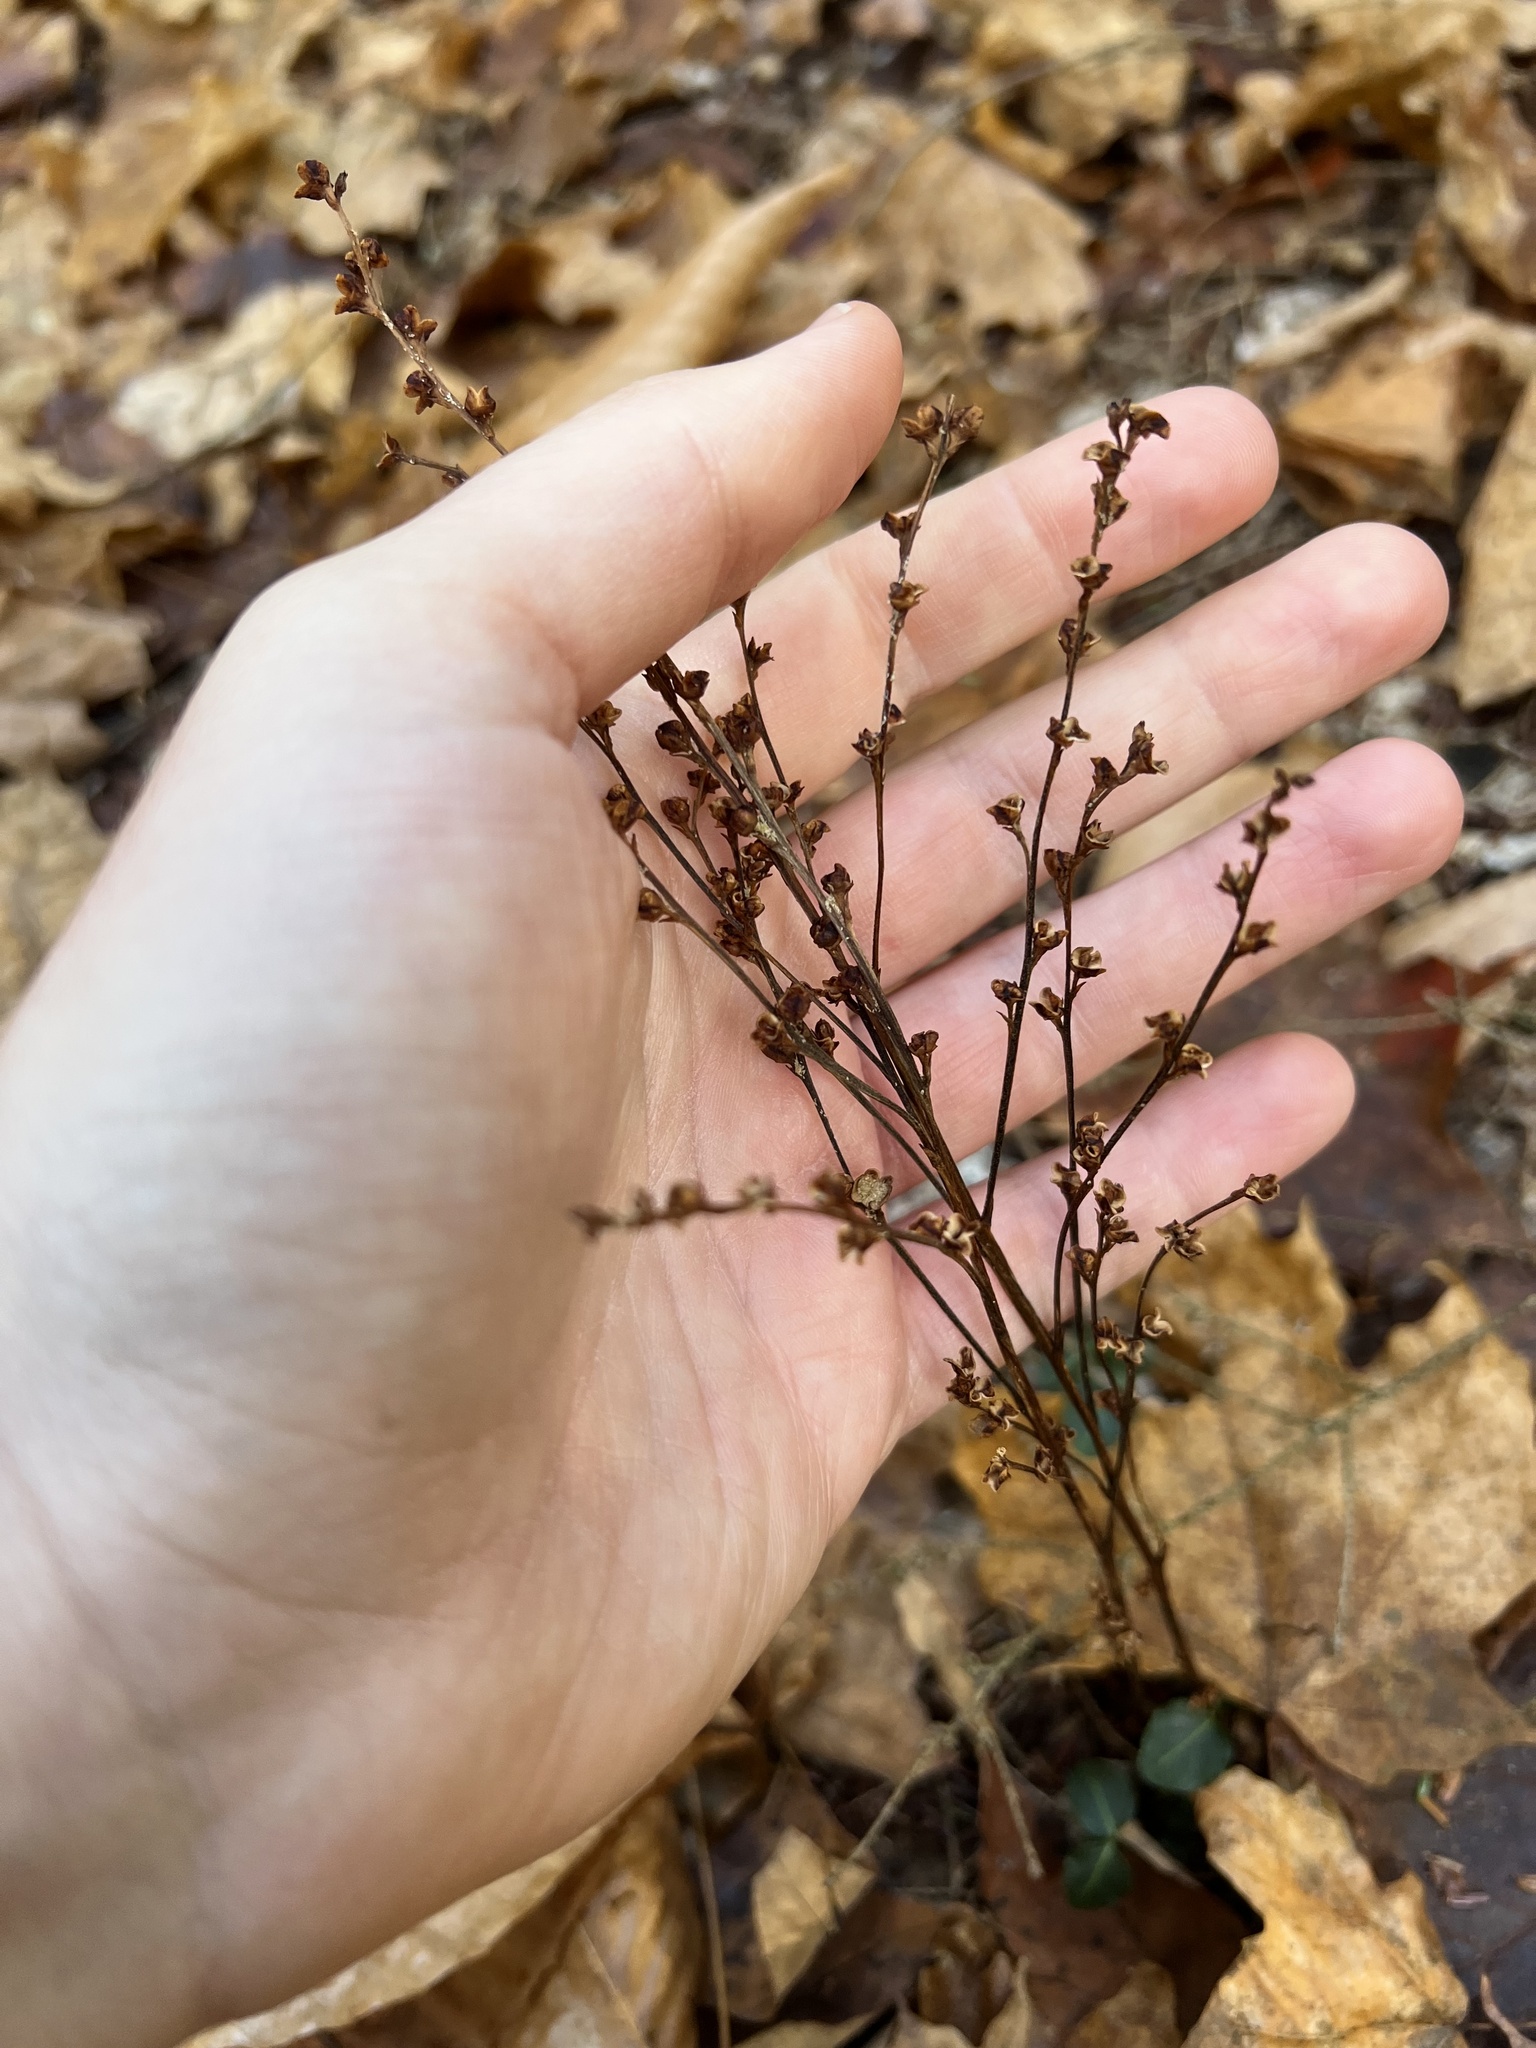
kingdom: Plantae
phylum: Tracheophyta
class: Magnoliopsida
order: Lamiales
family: Orobanchaceae
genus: Epifagus
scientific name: Epifagus virginiana
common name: Beechdrops
